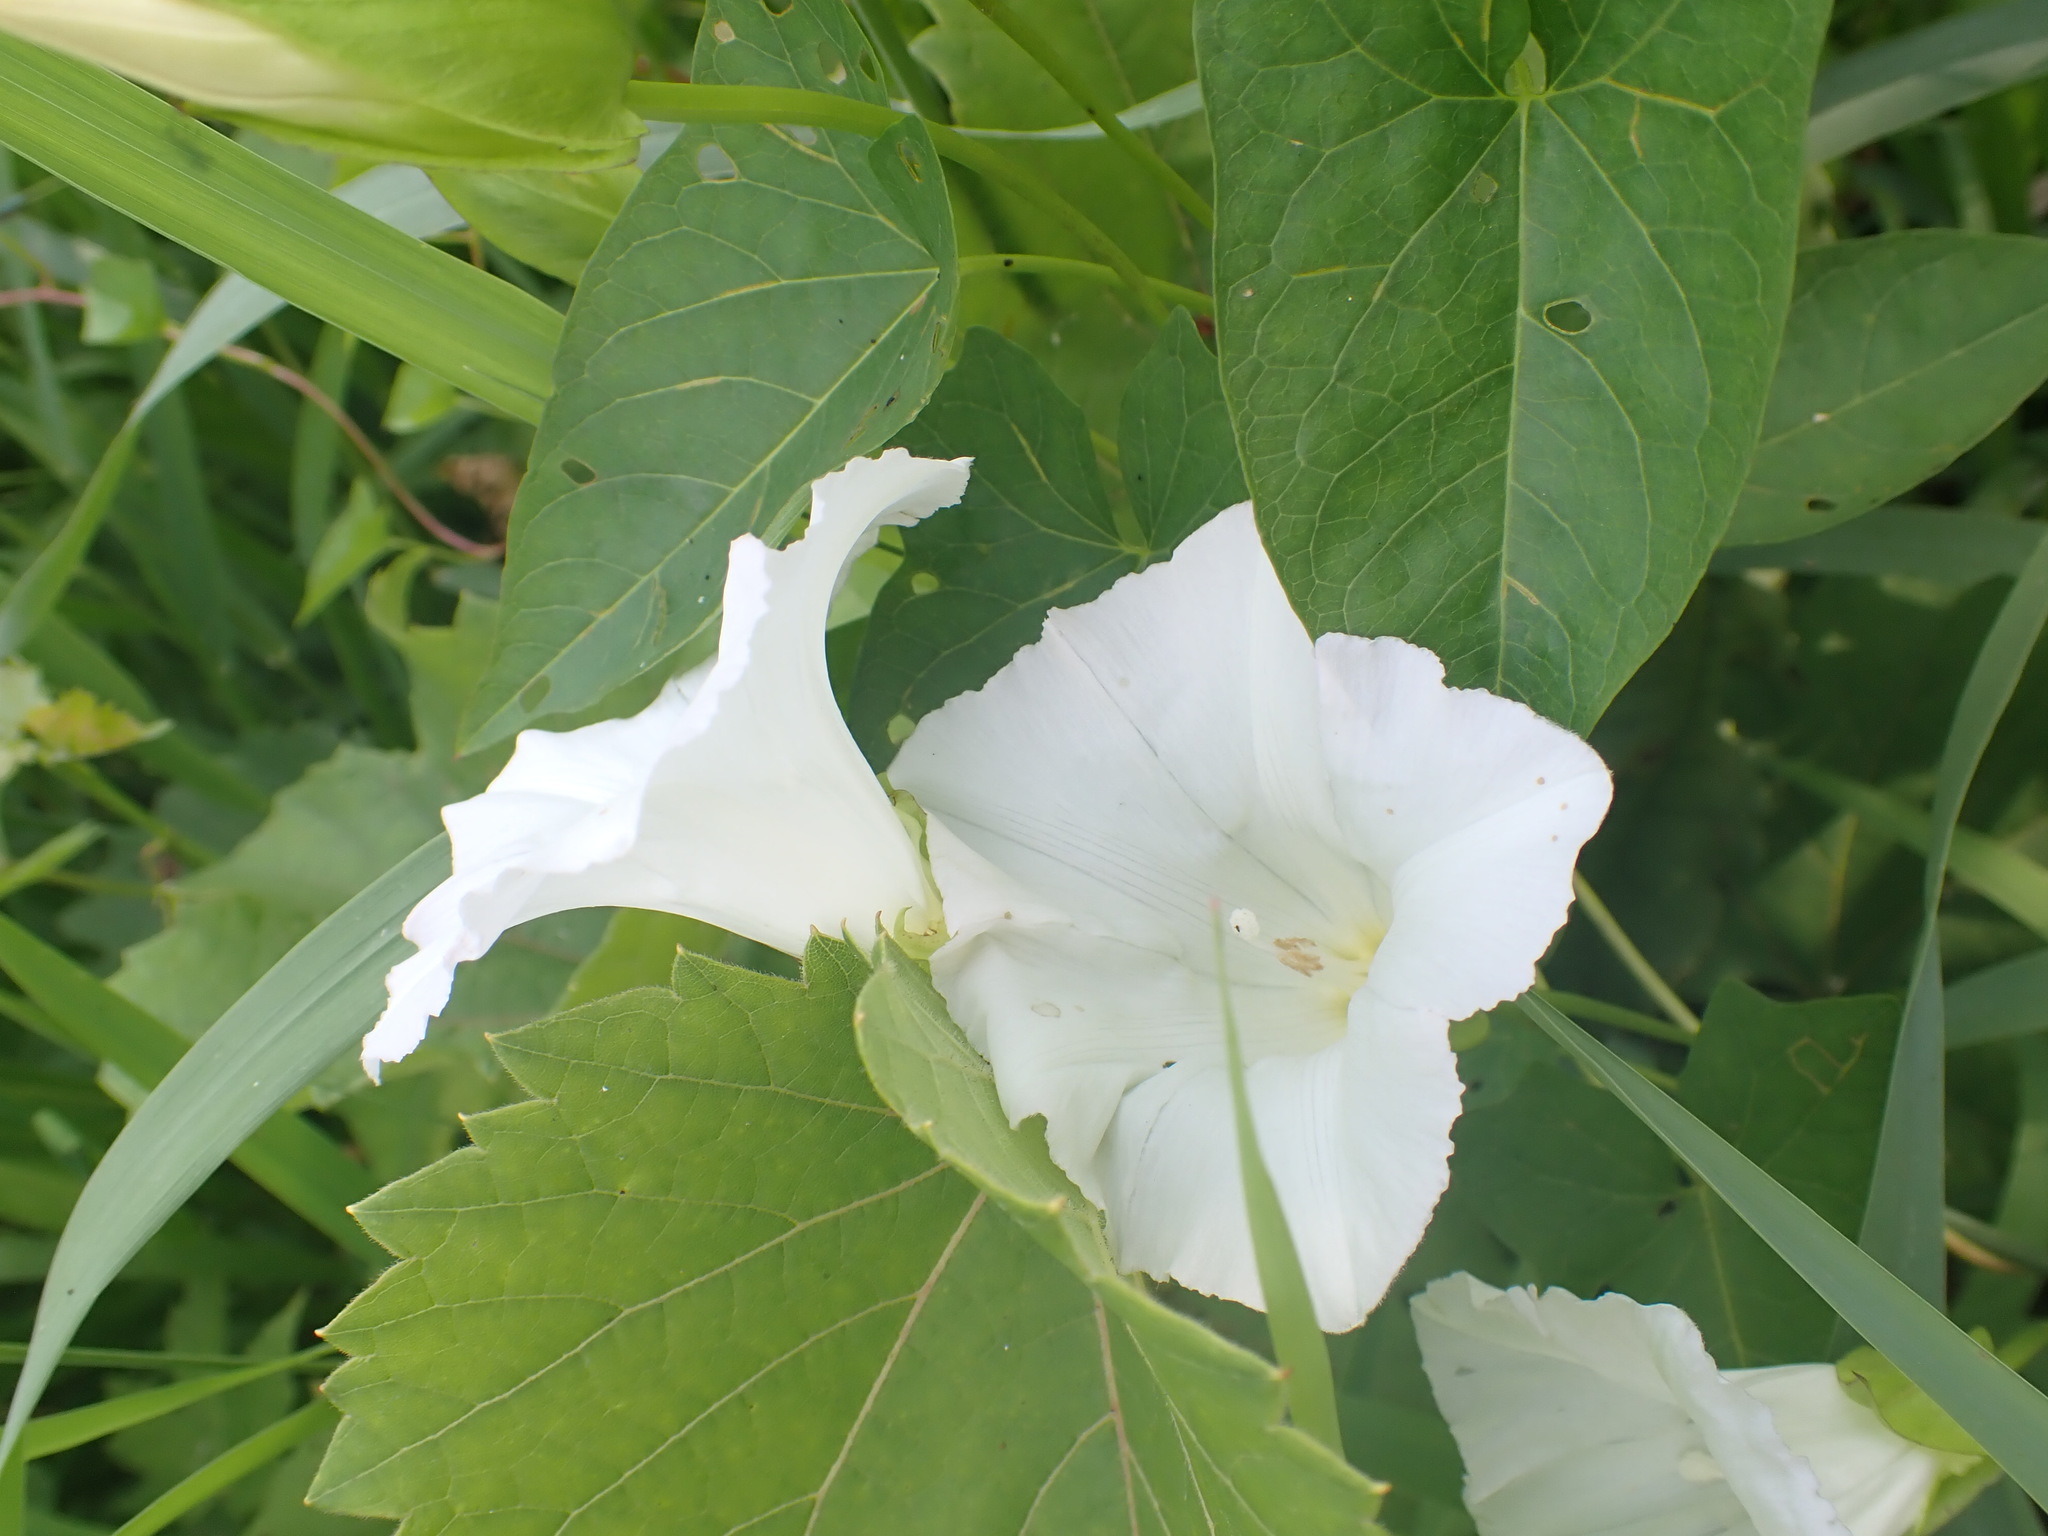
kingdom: Plantae
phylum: Tracheophyta
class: Magnoliopsida
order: Solanales
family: Convolvulaceae
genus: Calystegia
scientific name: Calystegia sepium
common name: Hedge bindweed
